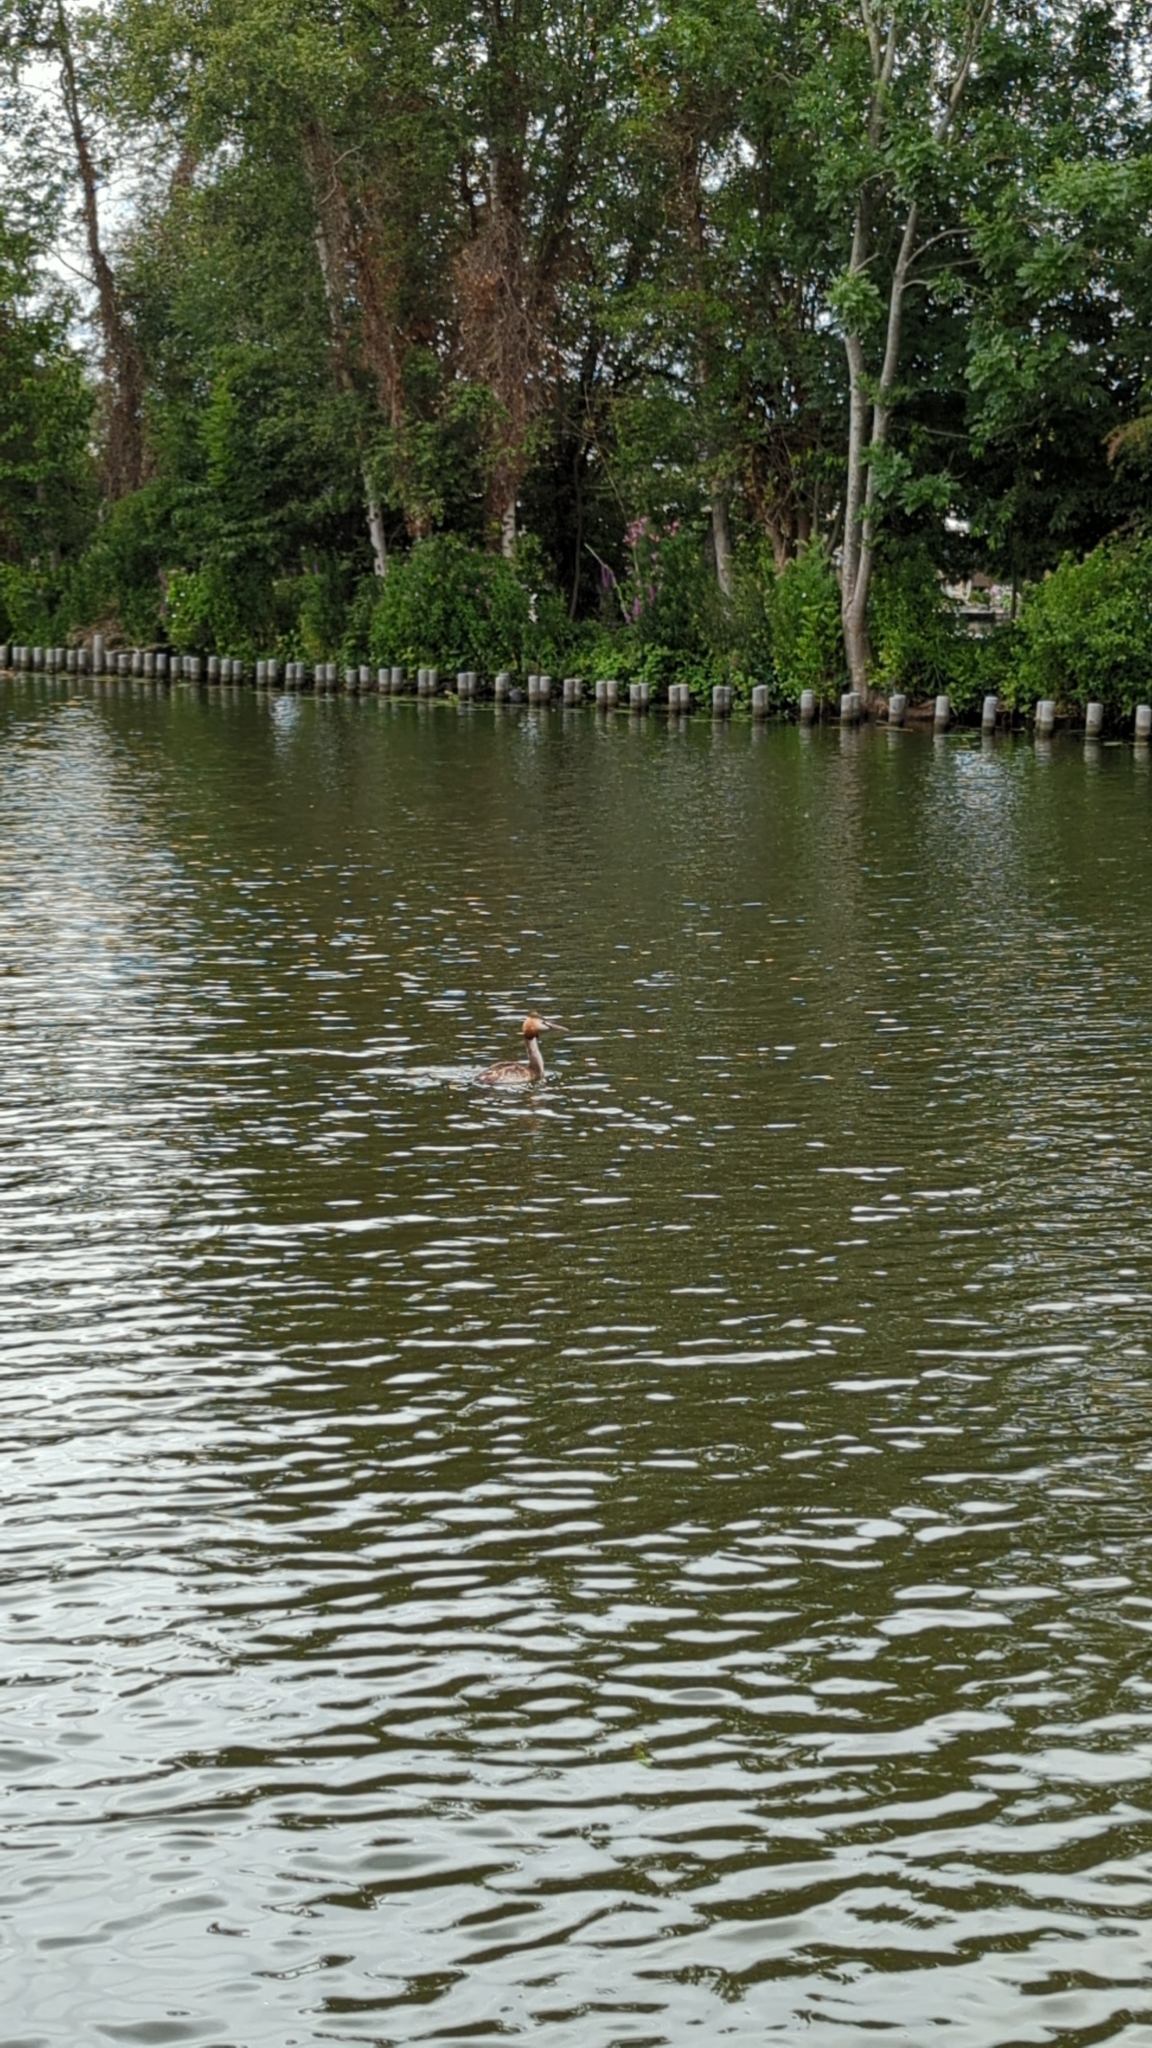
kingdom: Animalia
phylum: Chordata
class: Aves
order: Podicipediformes
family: Podicipedidae
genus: Podiceps
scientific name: Podiceps cristatus
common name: Great crested grebe
